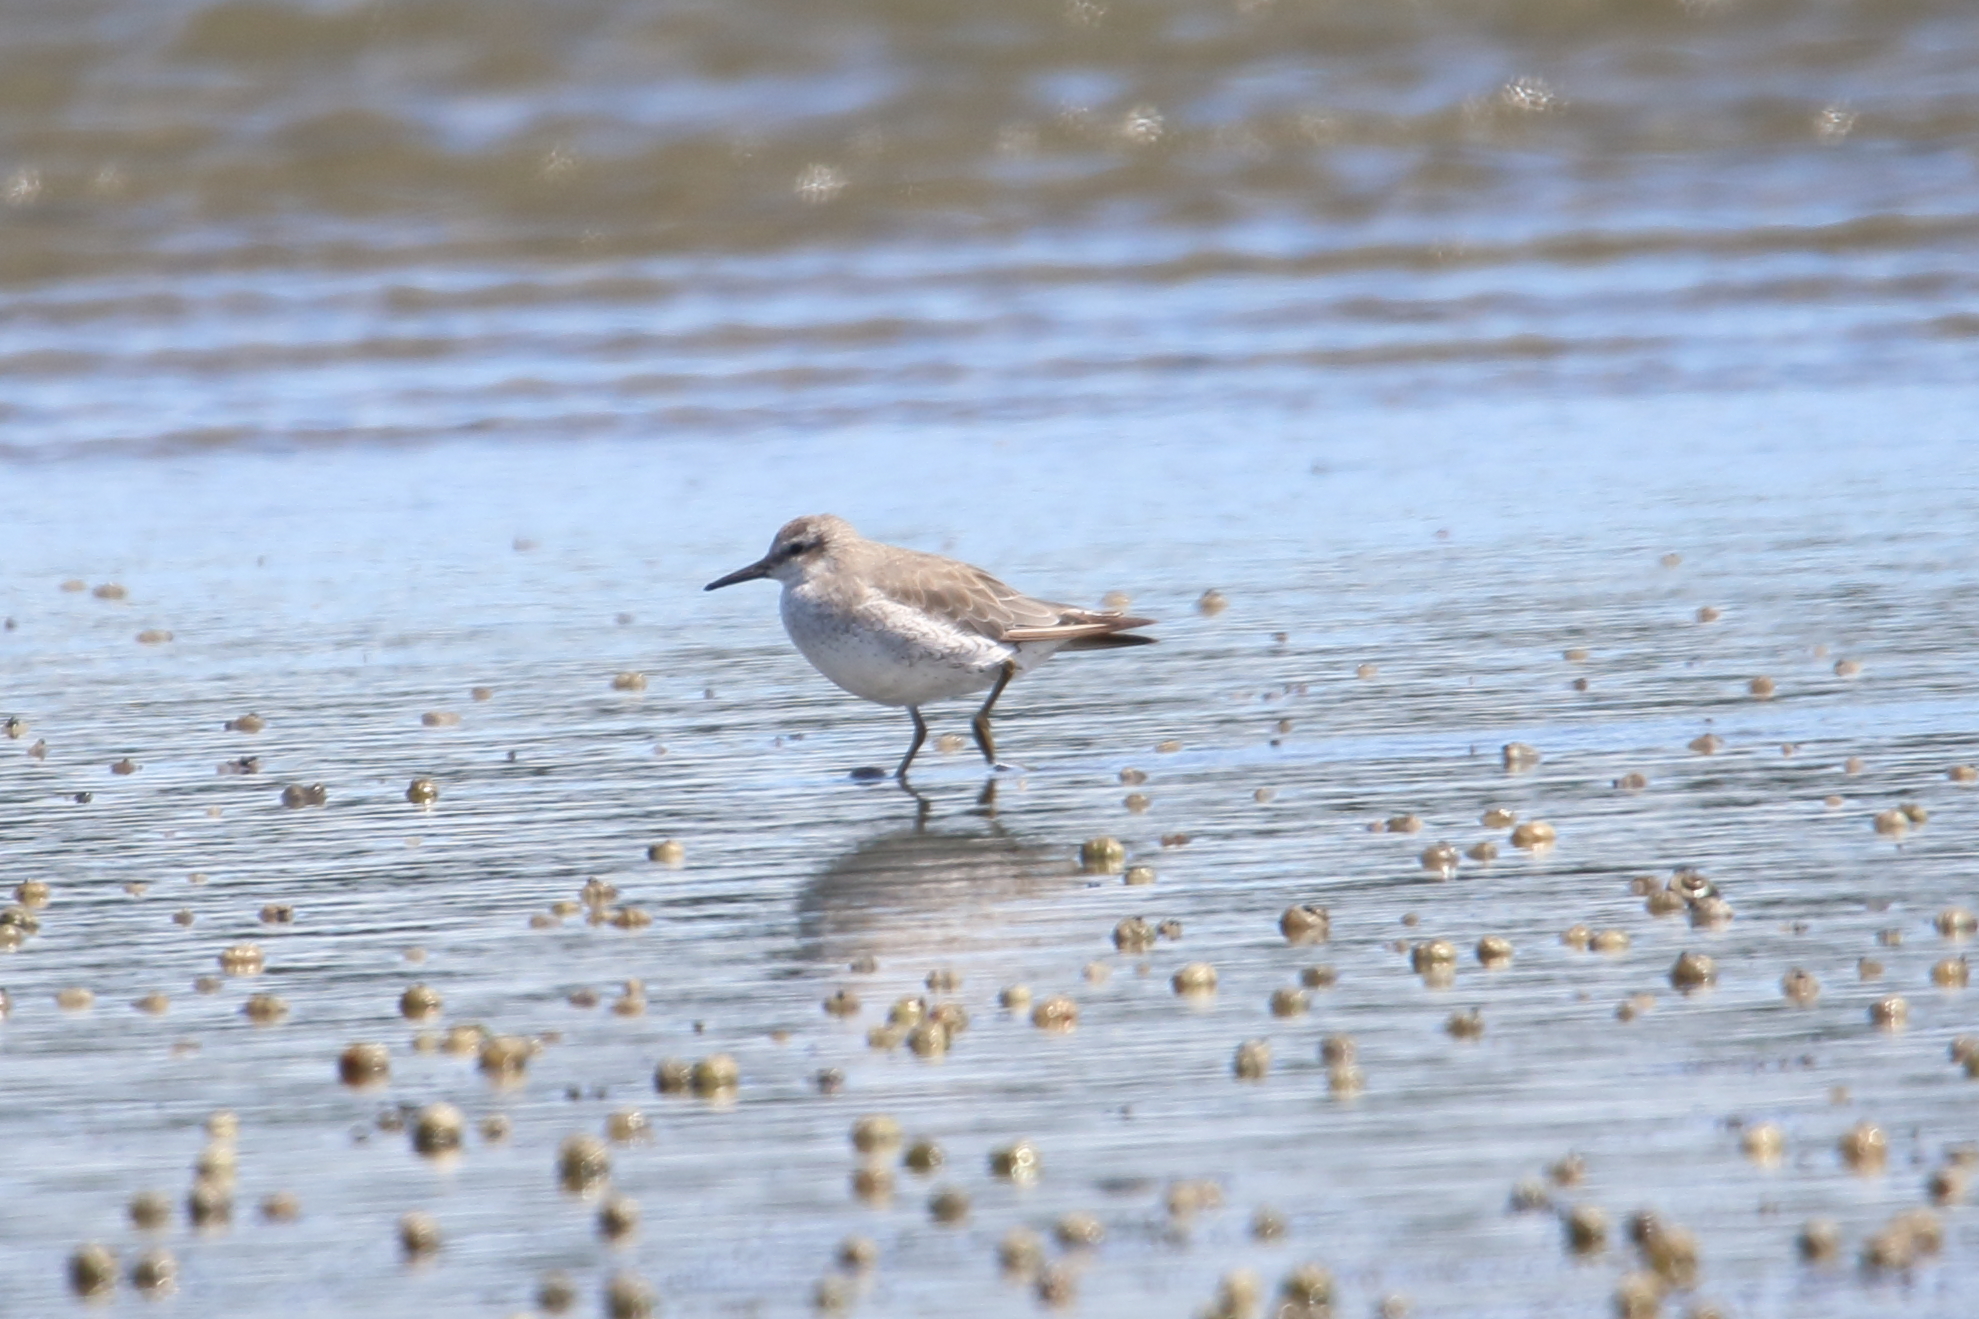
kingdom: Animalia
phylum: Chordata
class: Aves
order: Charadriiformes
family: Scolopacidae
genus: Calidris
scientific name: Calidris canutus
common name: Red knot
